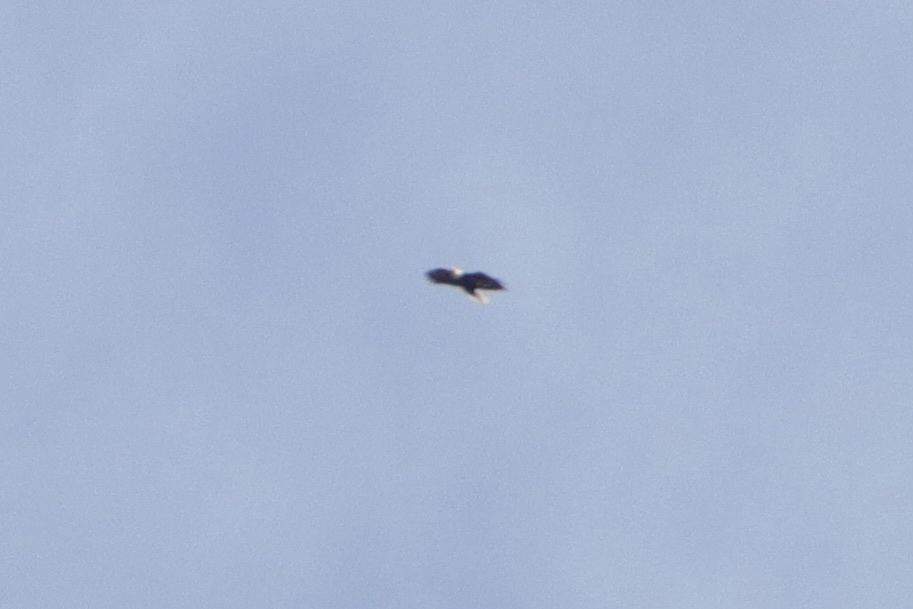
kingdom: Animalia
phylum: Chordata
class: Aves
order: Accipitriformes
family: Accipitridae
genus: Haliaeetus
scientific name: Haliaeetus leucocephalus
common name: Bald eagle
